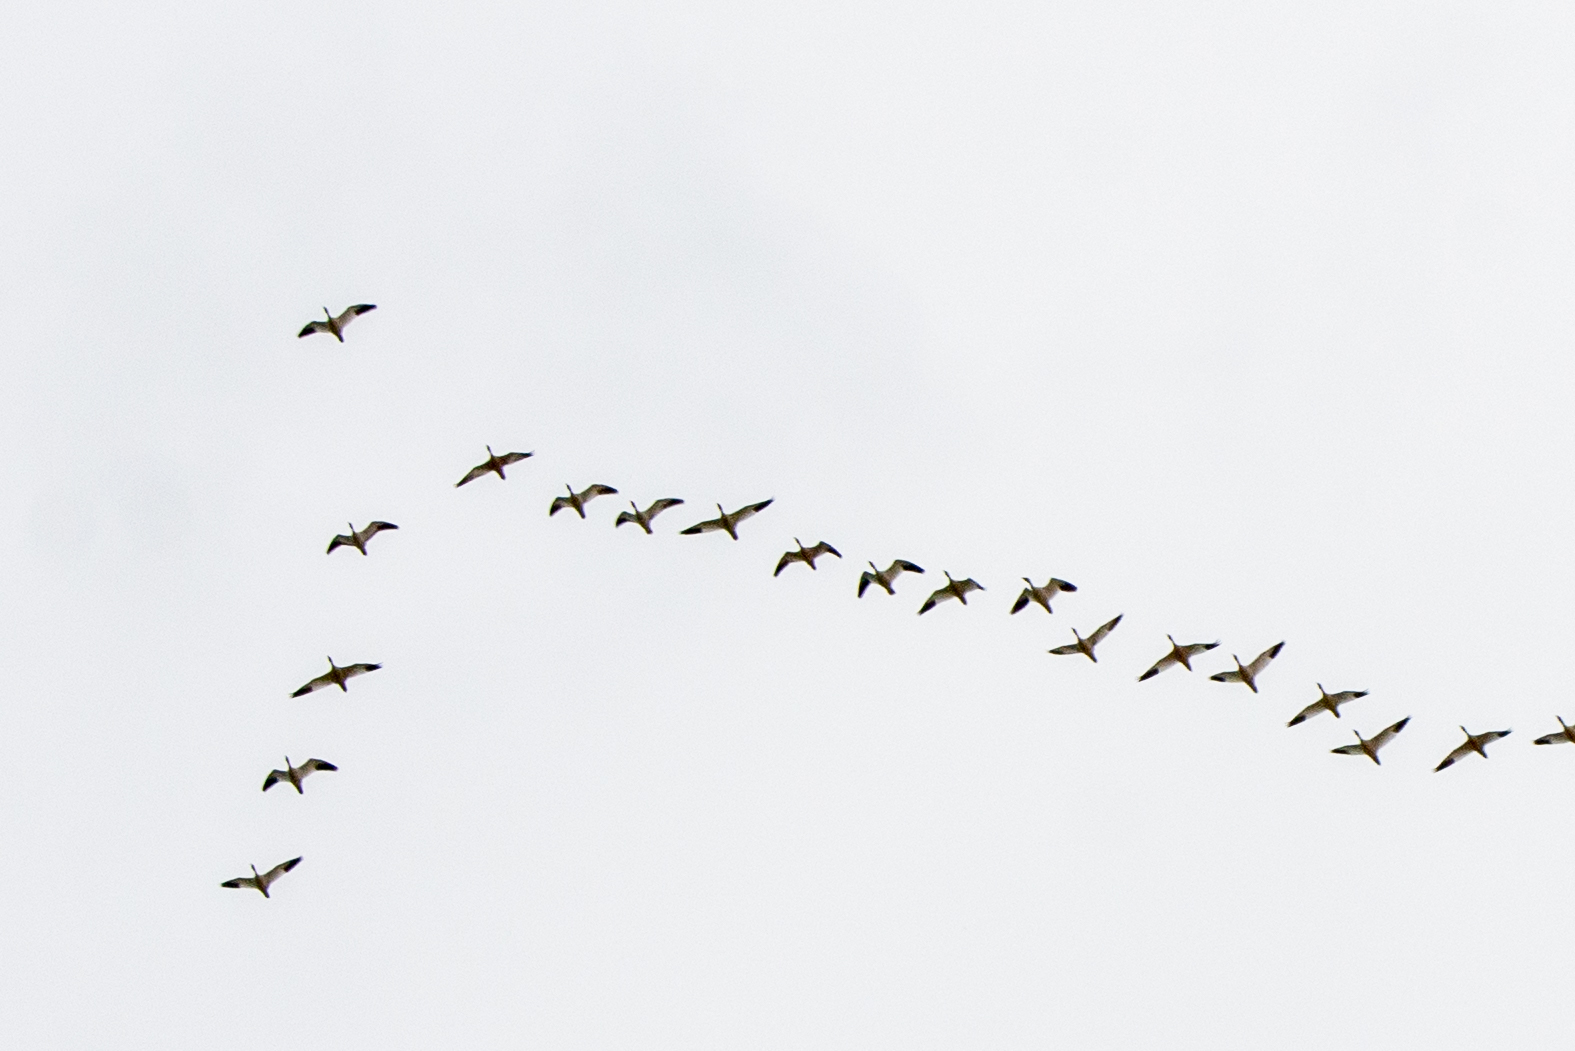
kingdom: Animalia
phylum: Chordata
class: Aves
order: Anseriformes
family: Anatidae
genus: Anser
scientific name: Anser caerulescens
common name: Snow goose
